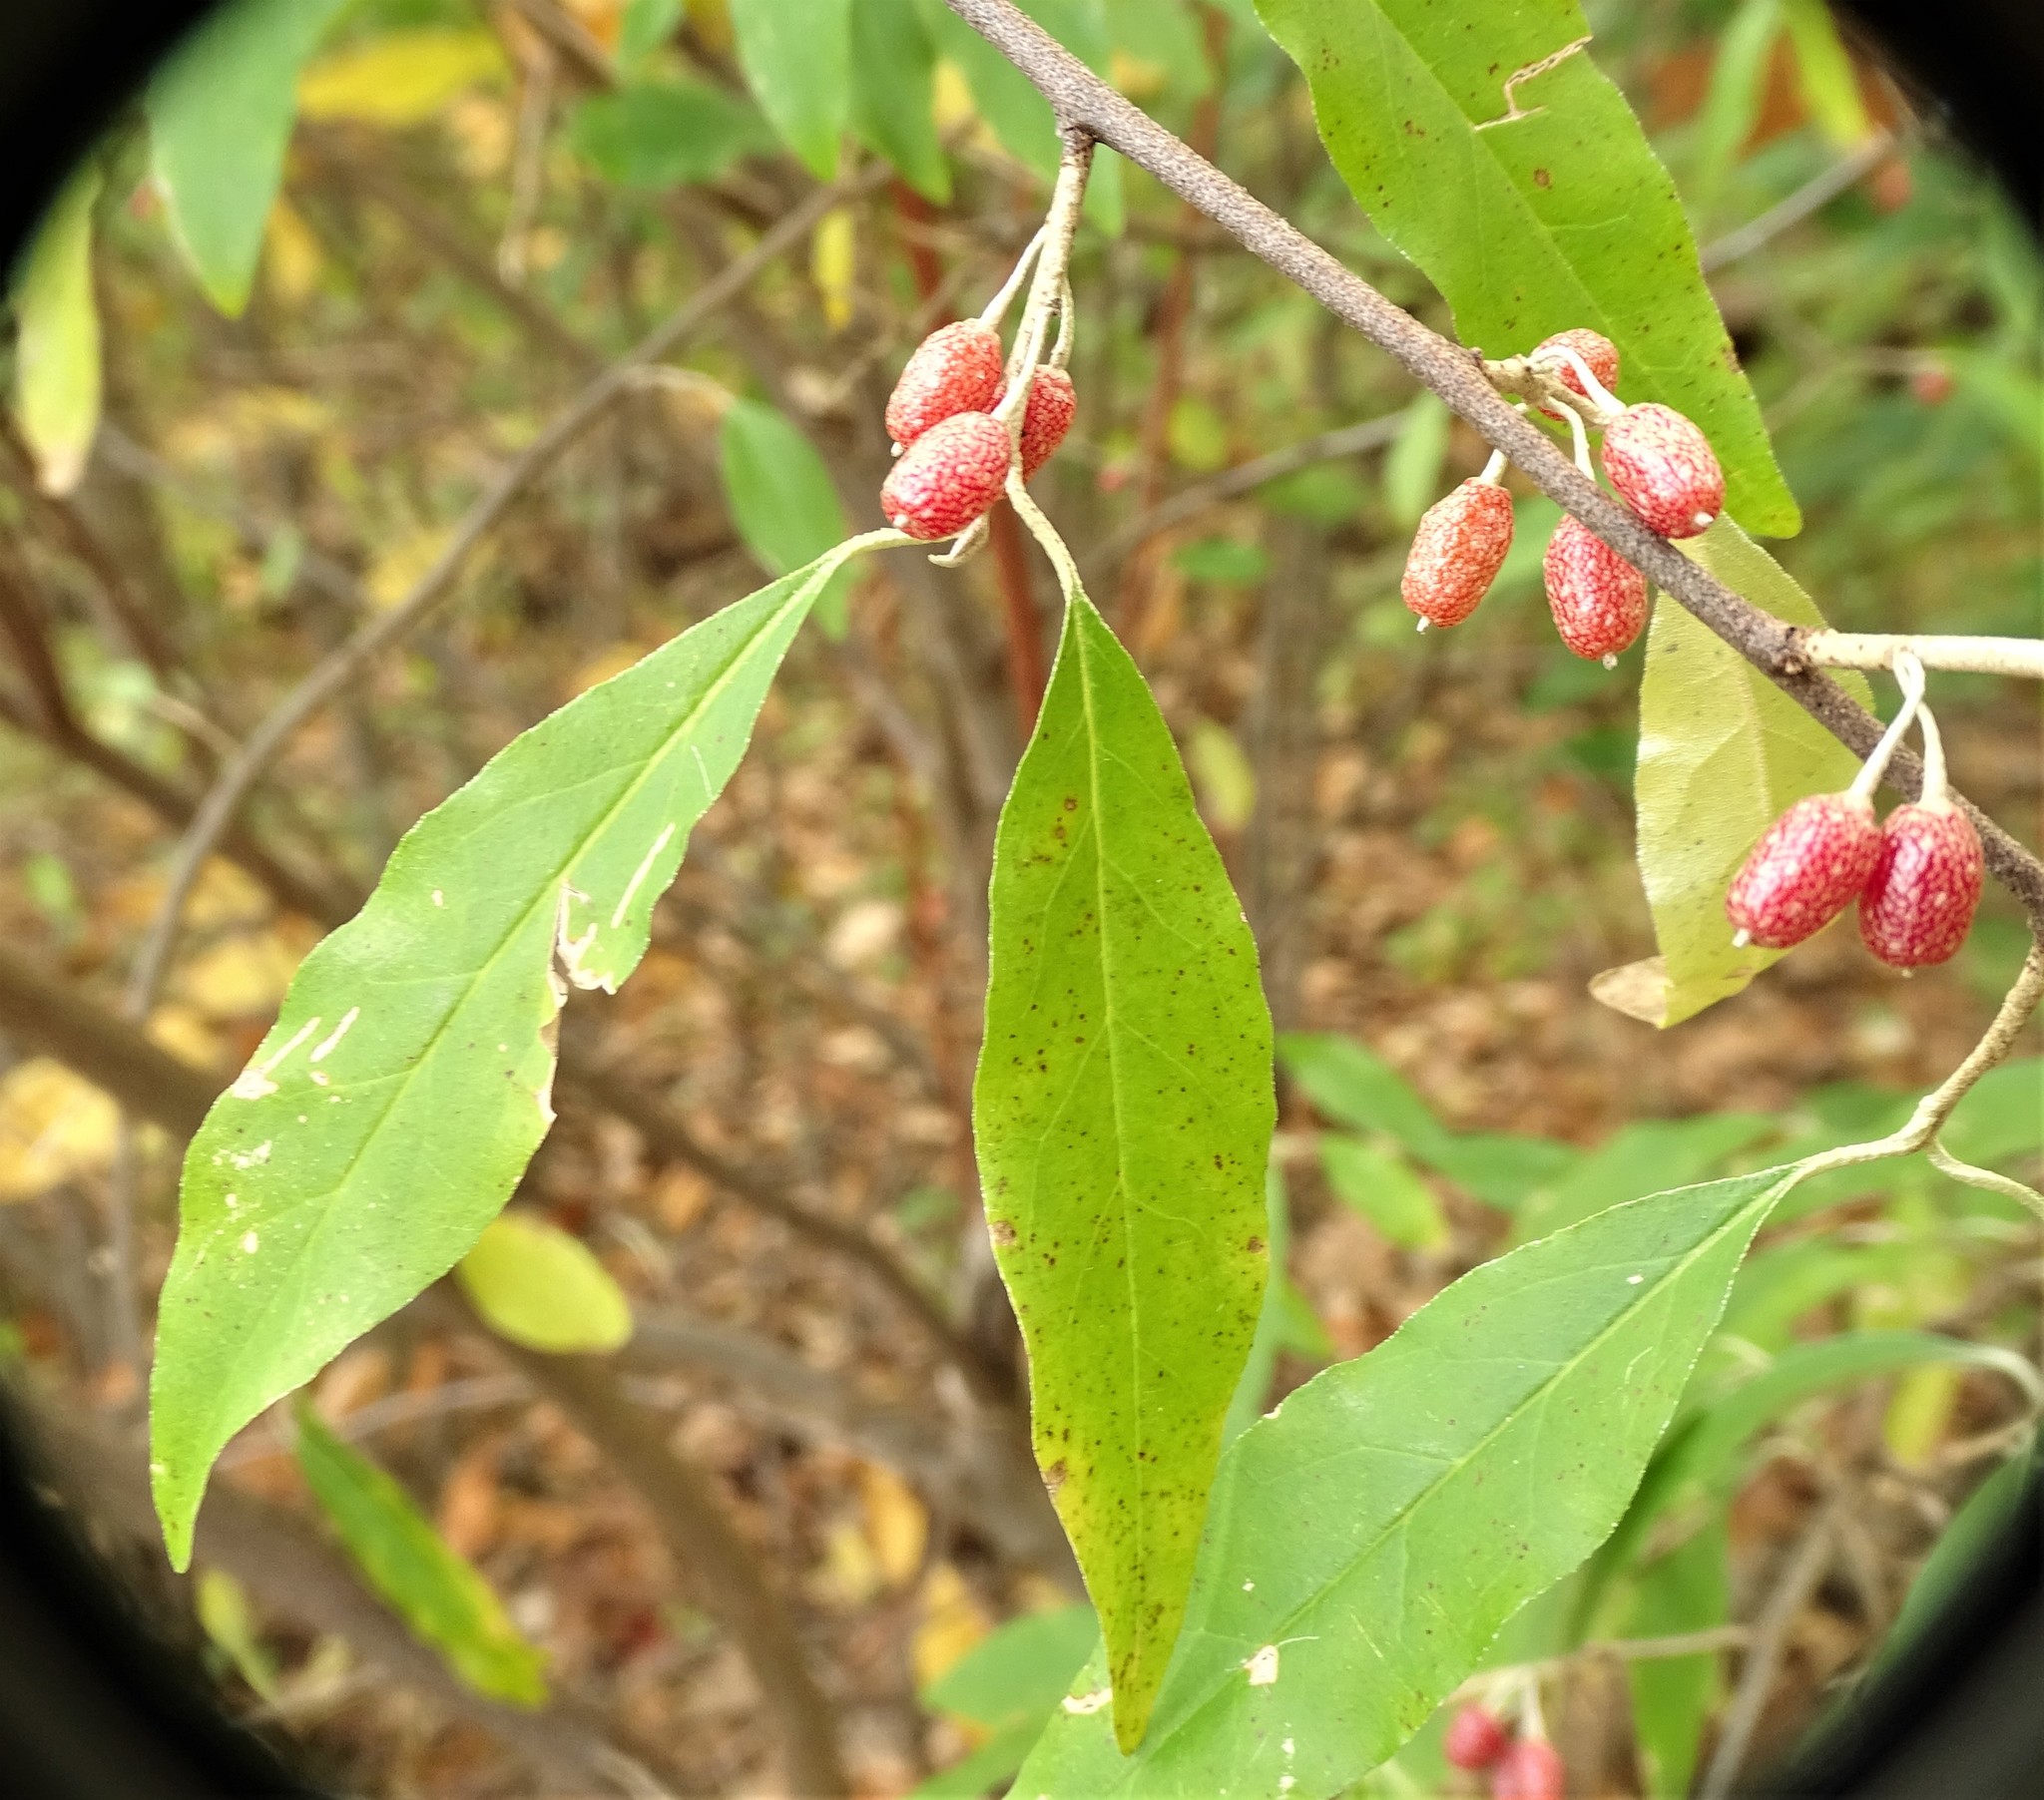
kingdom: Plantae
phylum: Tracheophyta
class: Magnoliopsida
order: Rosales
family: Elaeagnaceae
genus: Elaeagnus
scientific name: Elaeagnus umbellata
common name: Autumn olive
